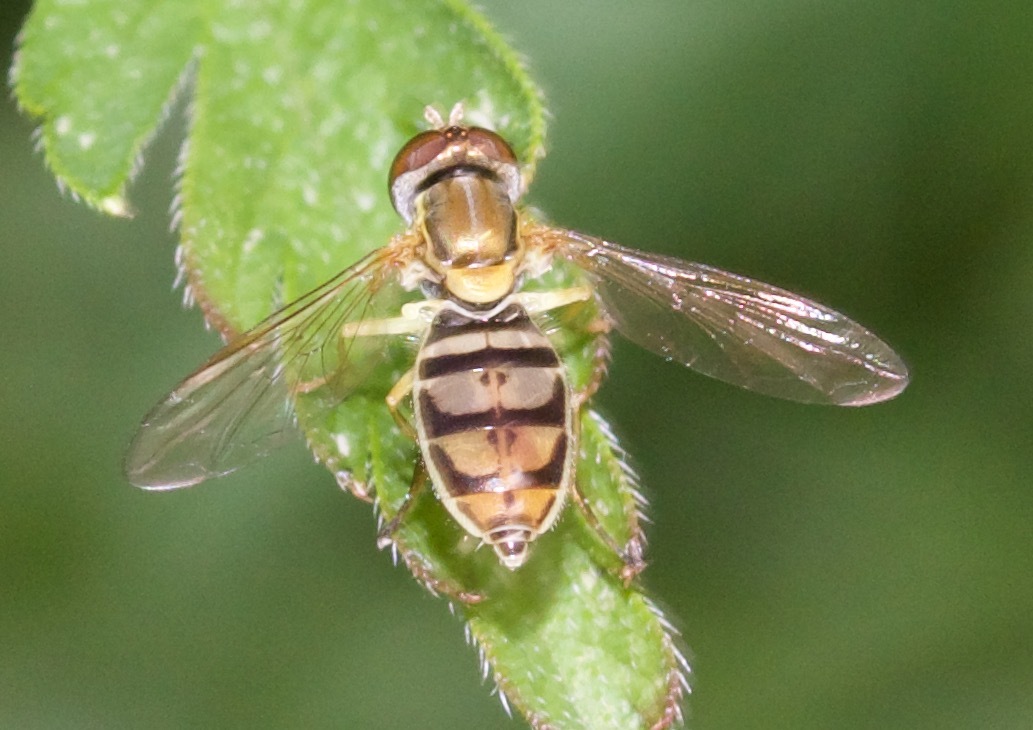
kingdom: Animalia
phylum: Arthropoda
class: Insecta
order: Diptera
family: Syrphidae
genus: Toxomerus
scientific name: Toxomerus marginatus
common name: Syrphid fly
